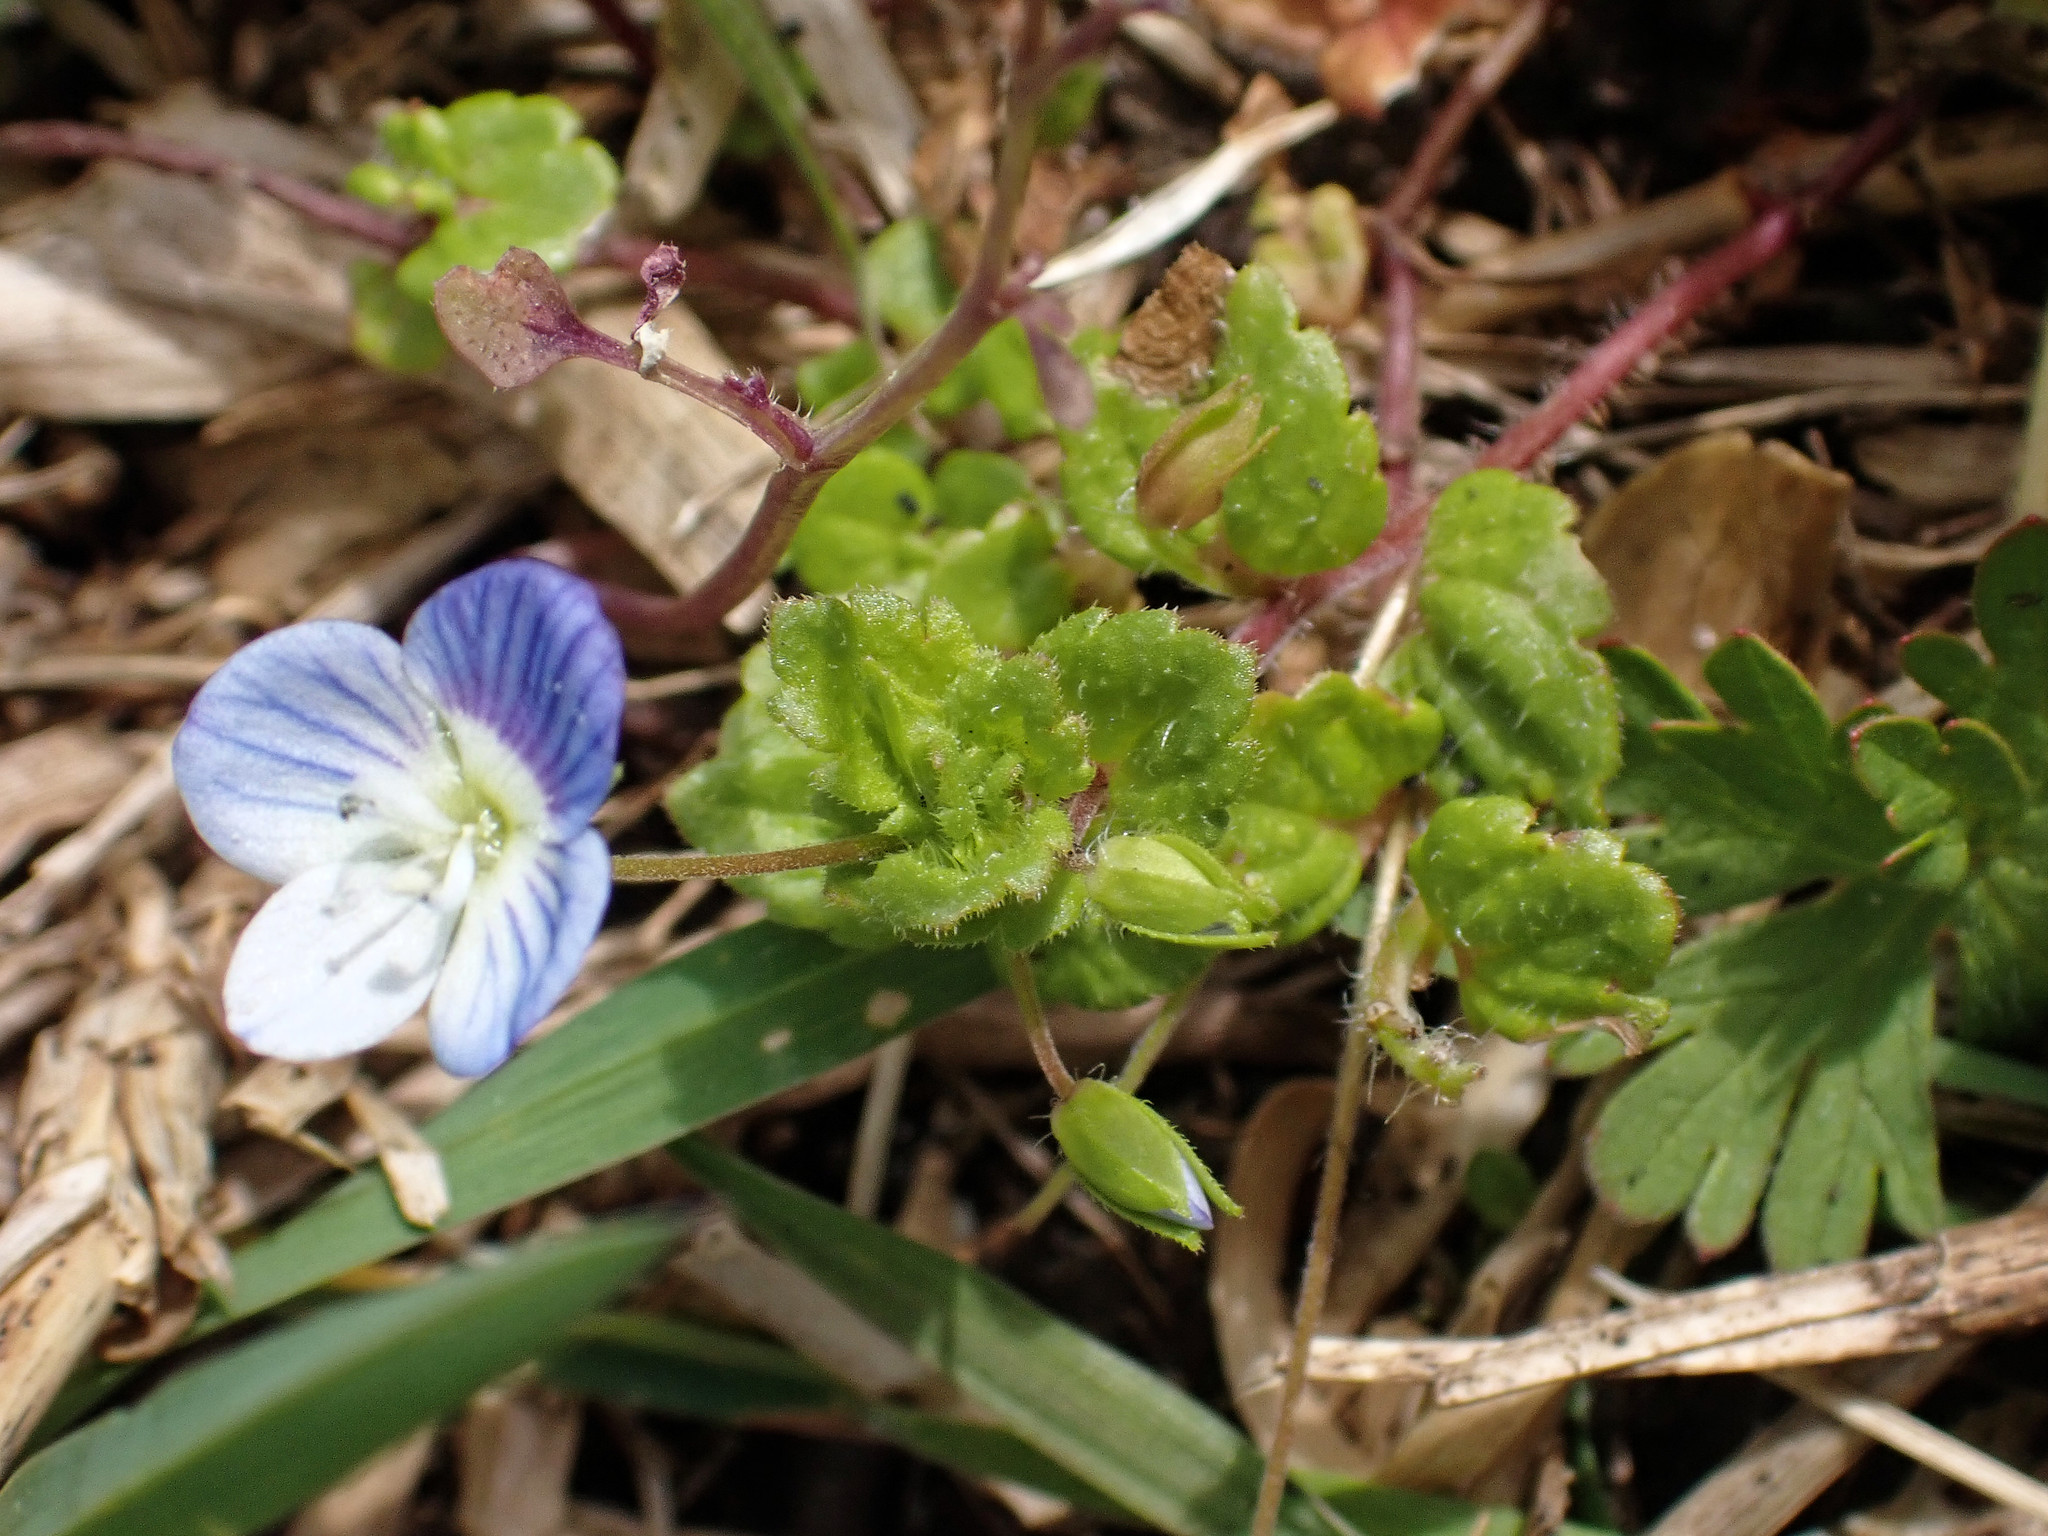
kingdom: Plantae
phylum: Tracheophyta
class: Magnoliopsida
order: Lamiales
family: Plantaginaceae
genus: Veronica
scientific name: Veronica persica
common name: Common field-speedwell
